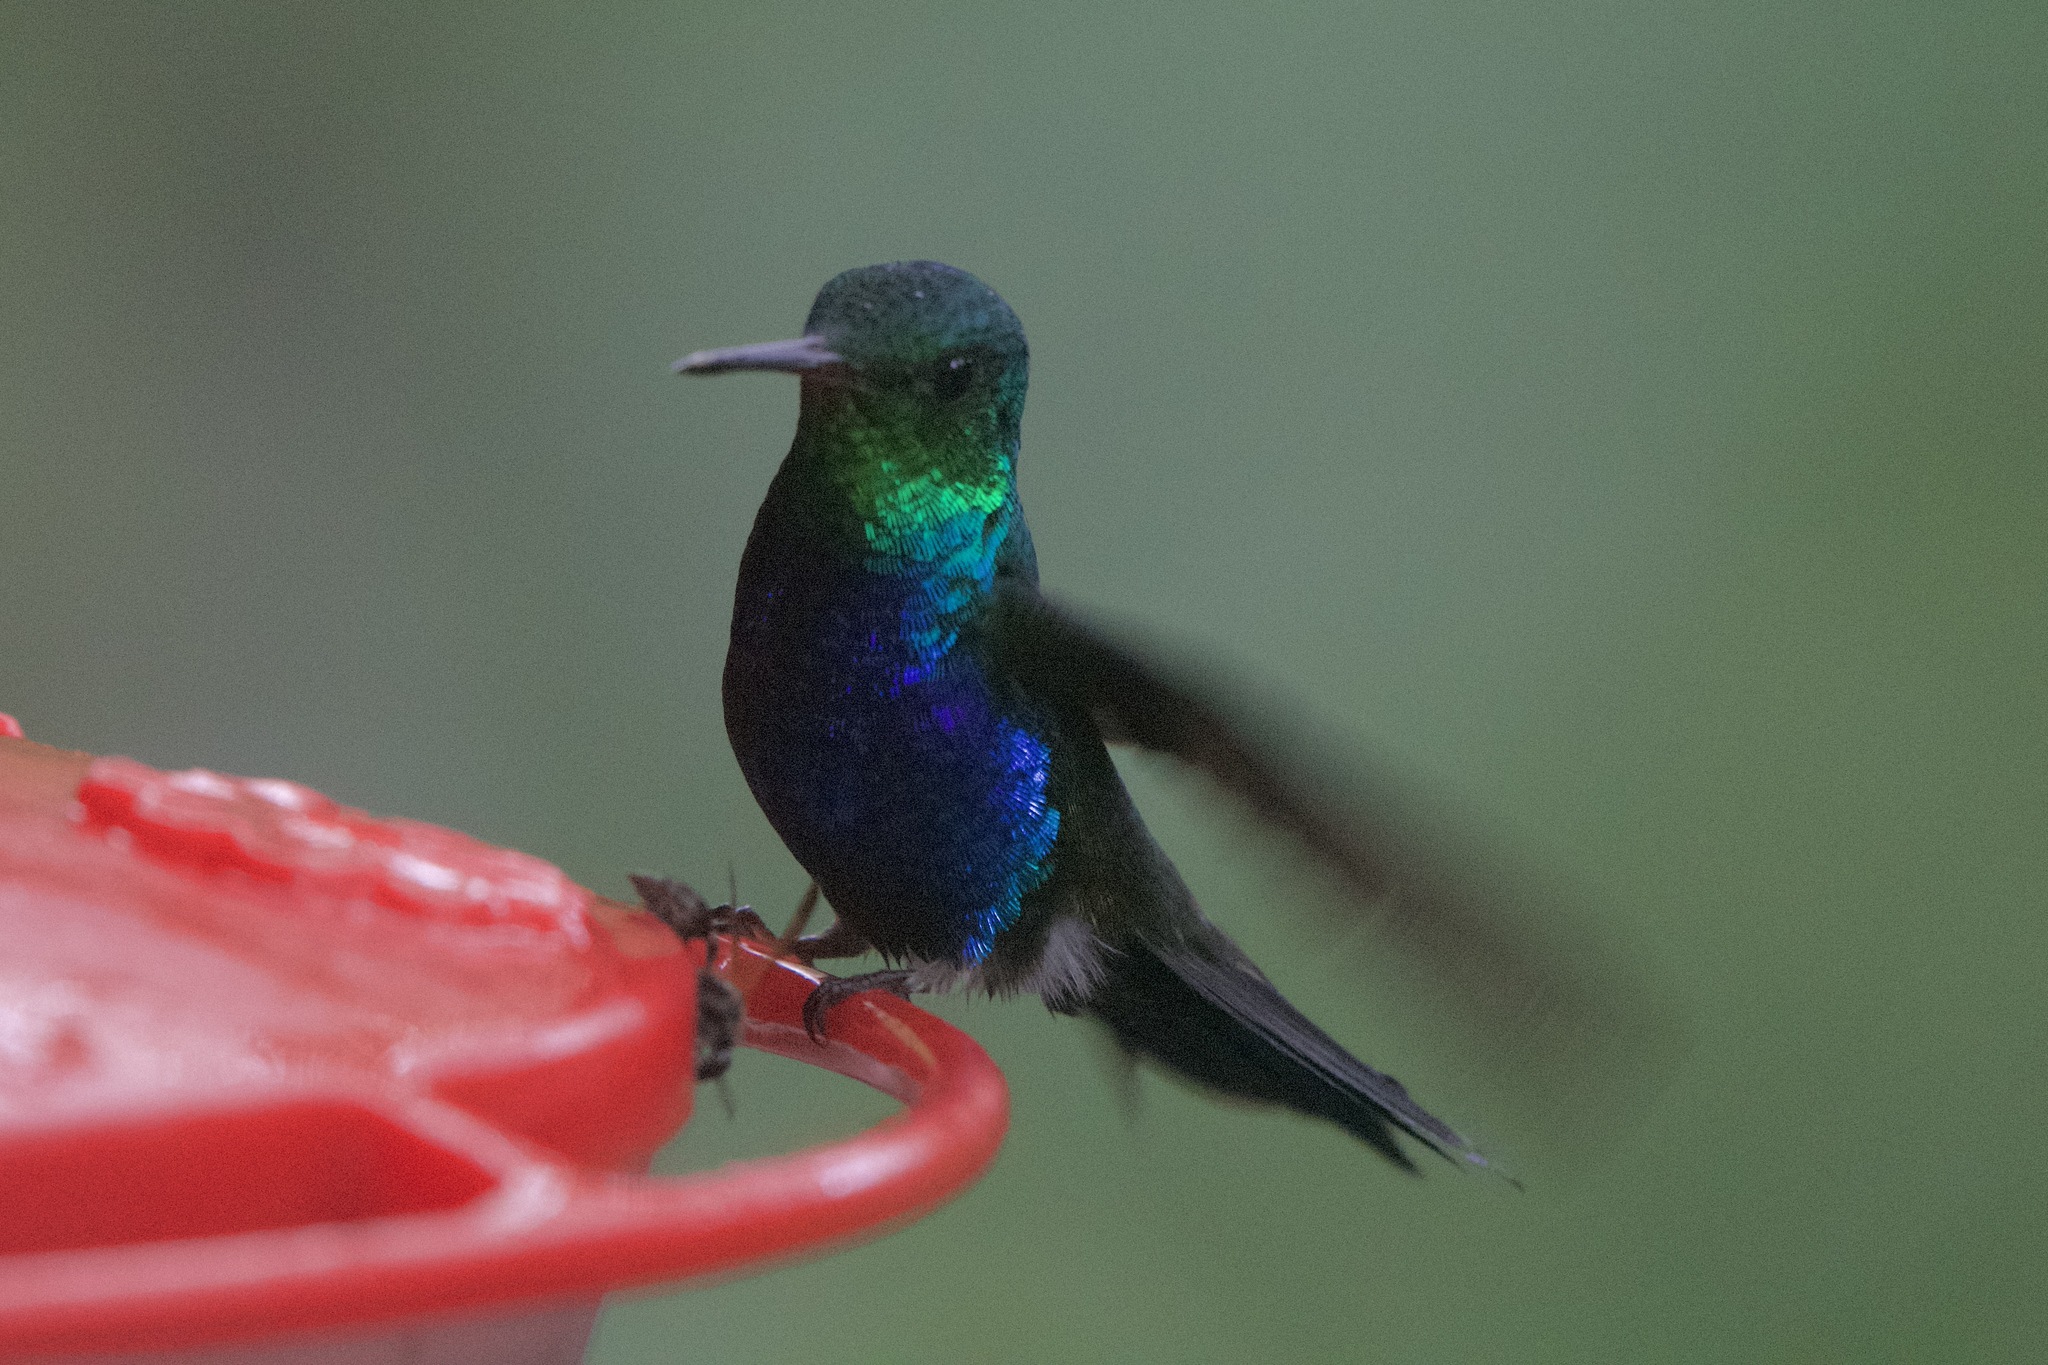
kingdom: Animalia
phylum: Chordata
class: Aves
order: Apodiformes
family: Trochilidae
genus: Chlorestes
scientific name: Chlorestes julie
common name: Violet-bellied hummingbird
